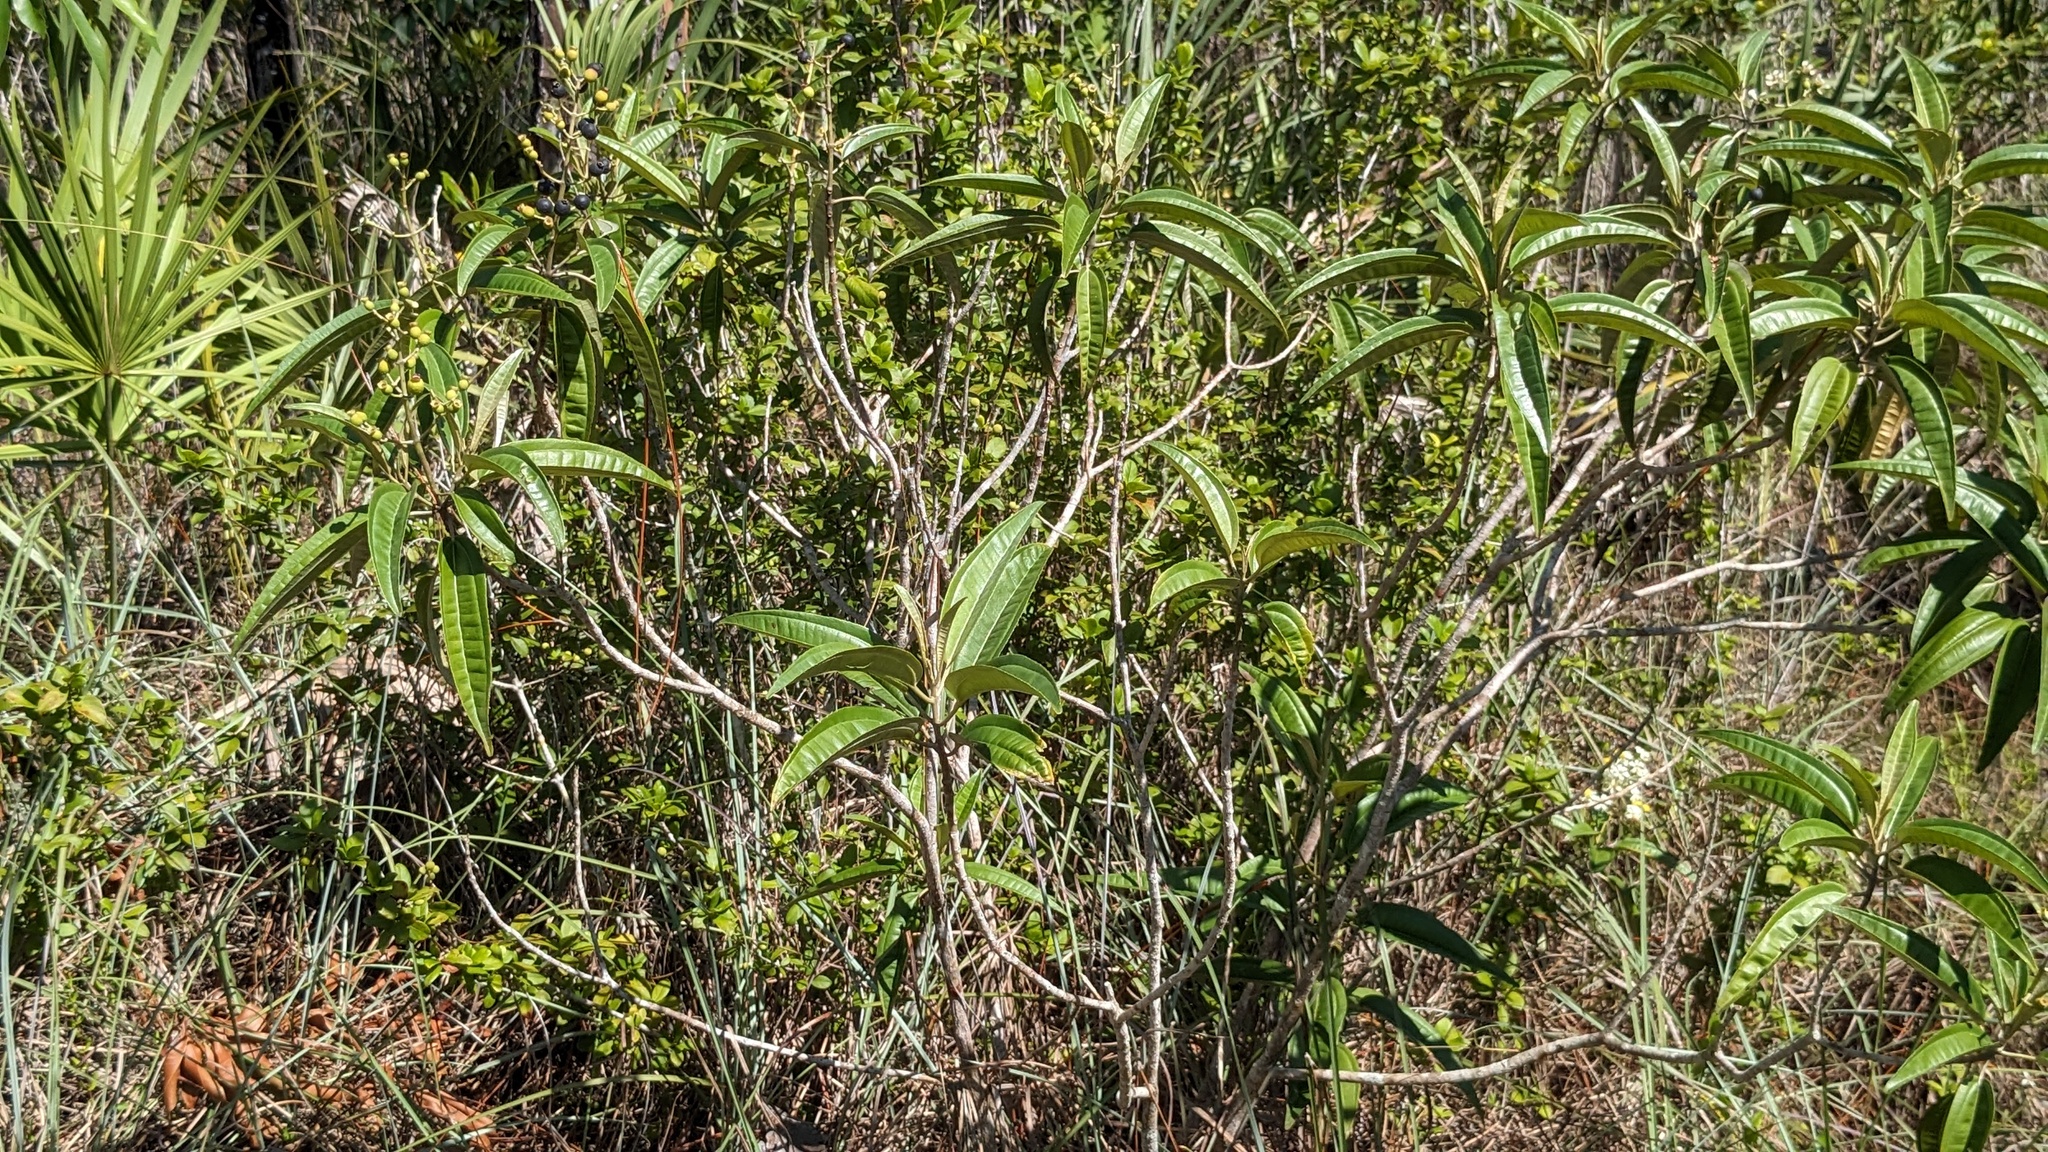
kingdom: Plantae
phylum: Tracheophyta
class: Magnoliopsida
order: Myrtales
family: Melastomataceae
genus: Miconia
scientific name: Miconia bicolor
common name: Johnnyberry
